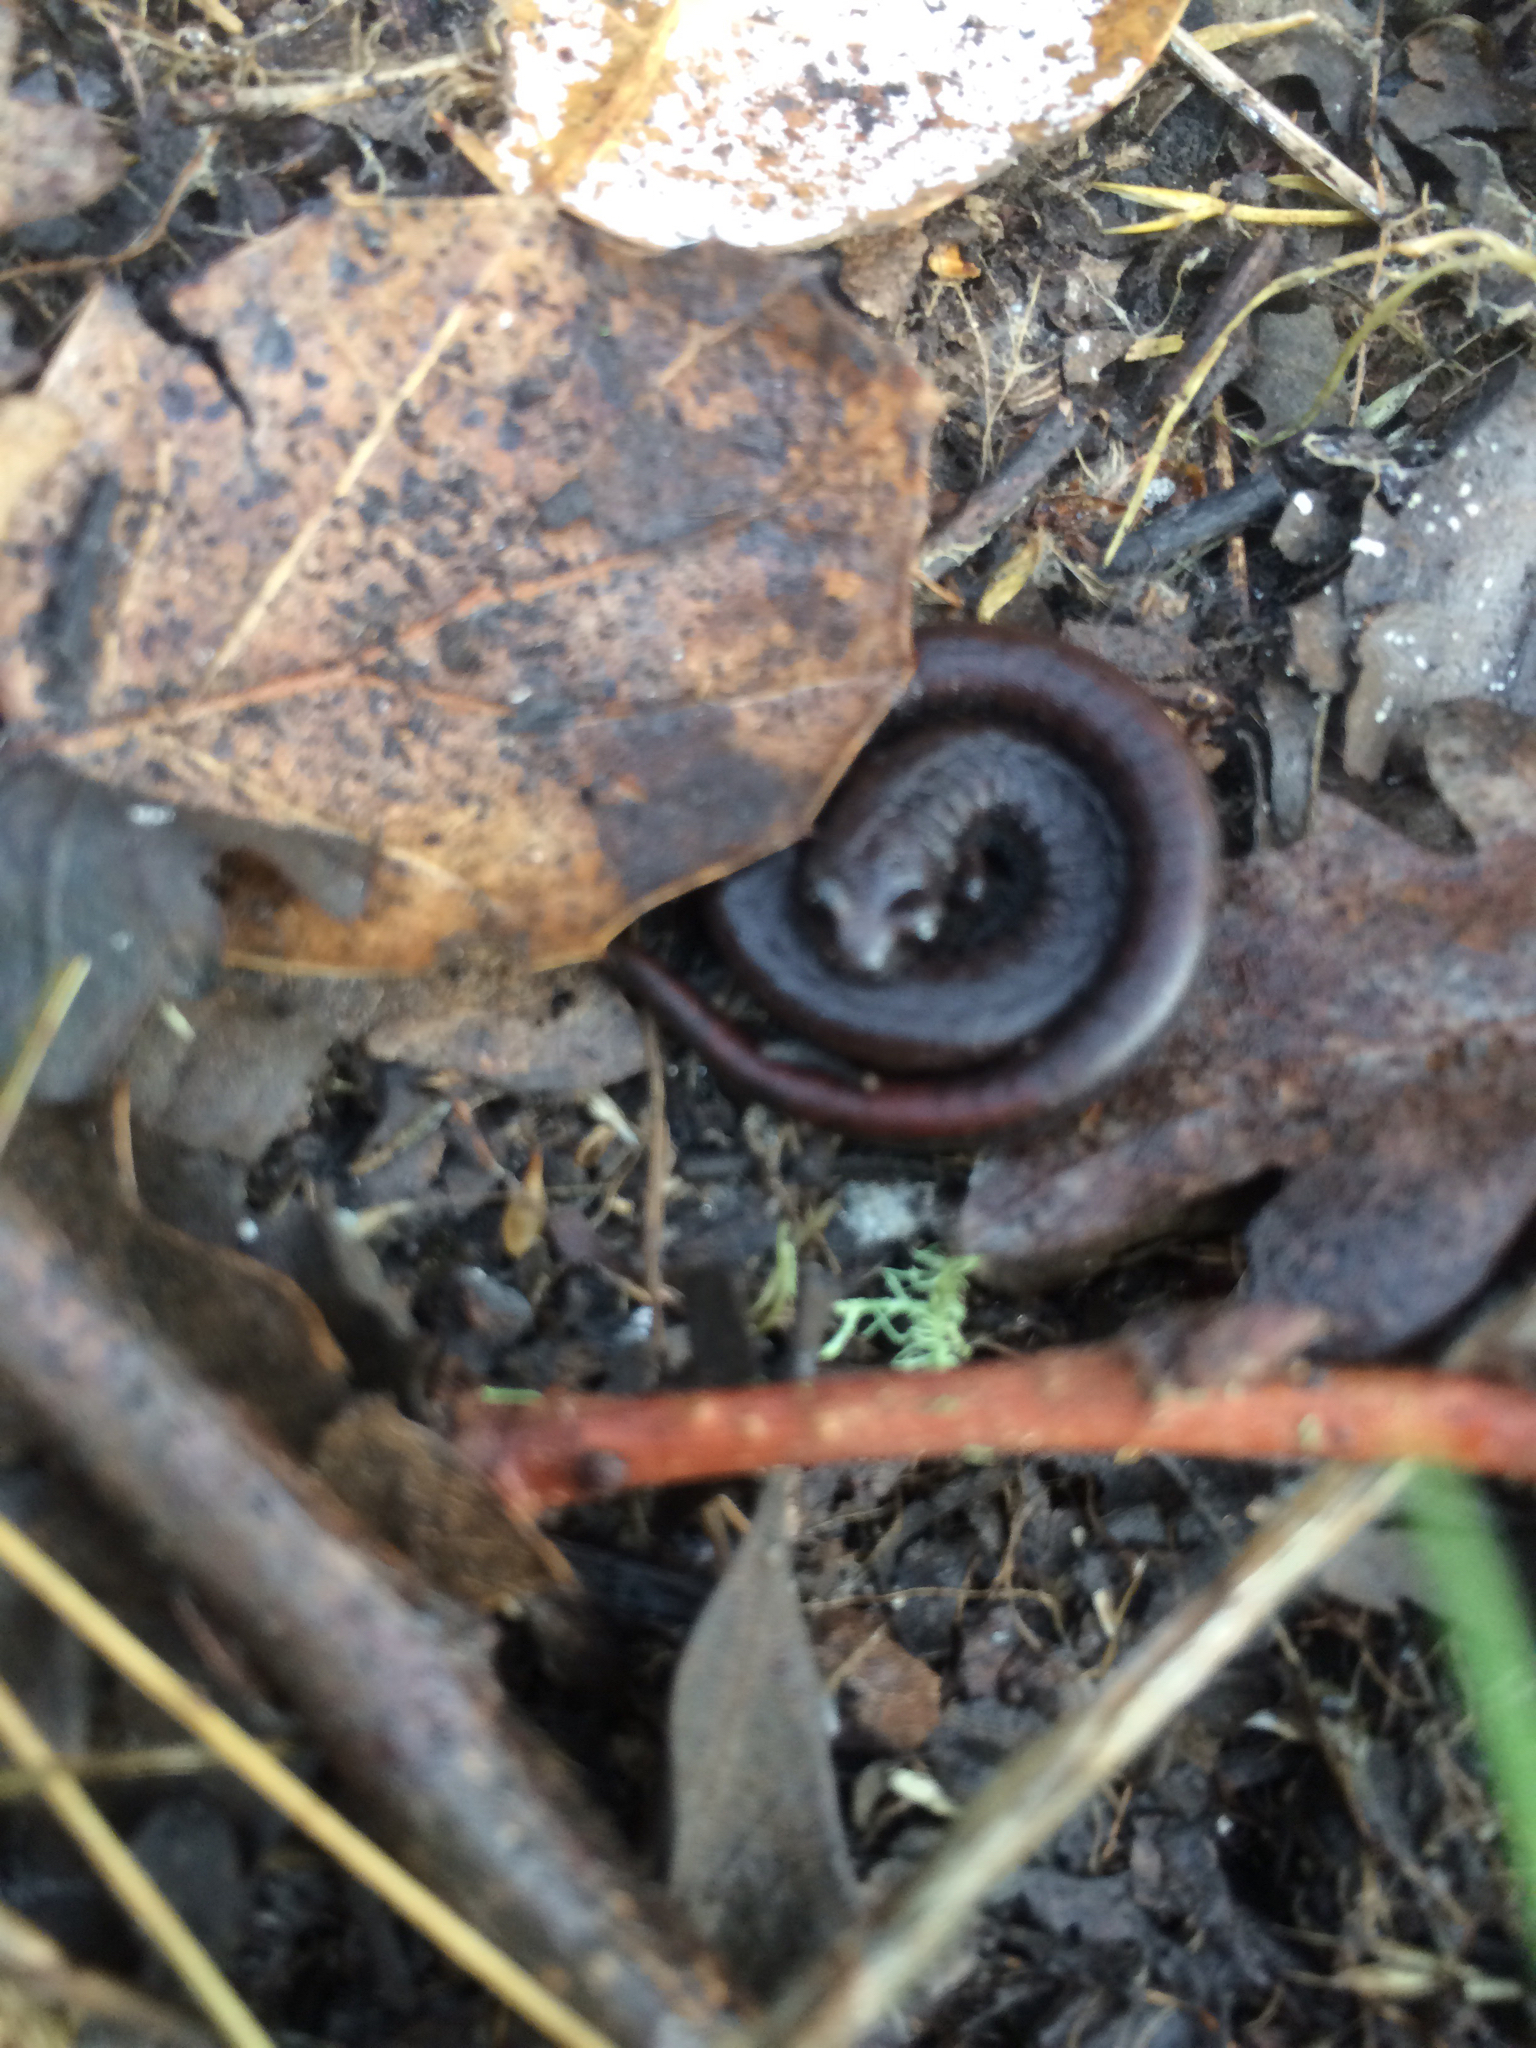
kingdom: Animalia
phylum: Chordata
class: Amphibia
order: Caudata
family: Plethodontidae
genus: Batrachoseps
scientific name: Batrachoseps attenuatus
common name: California slender salamander
